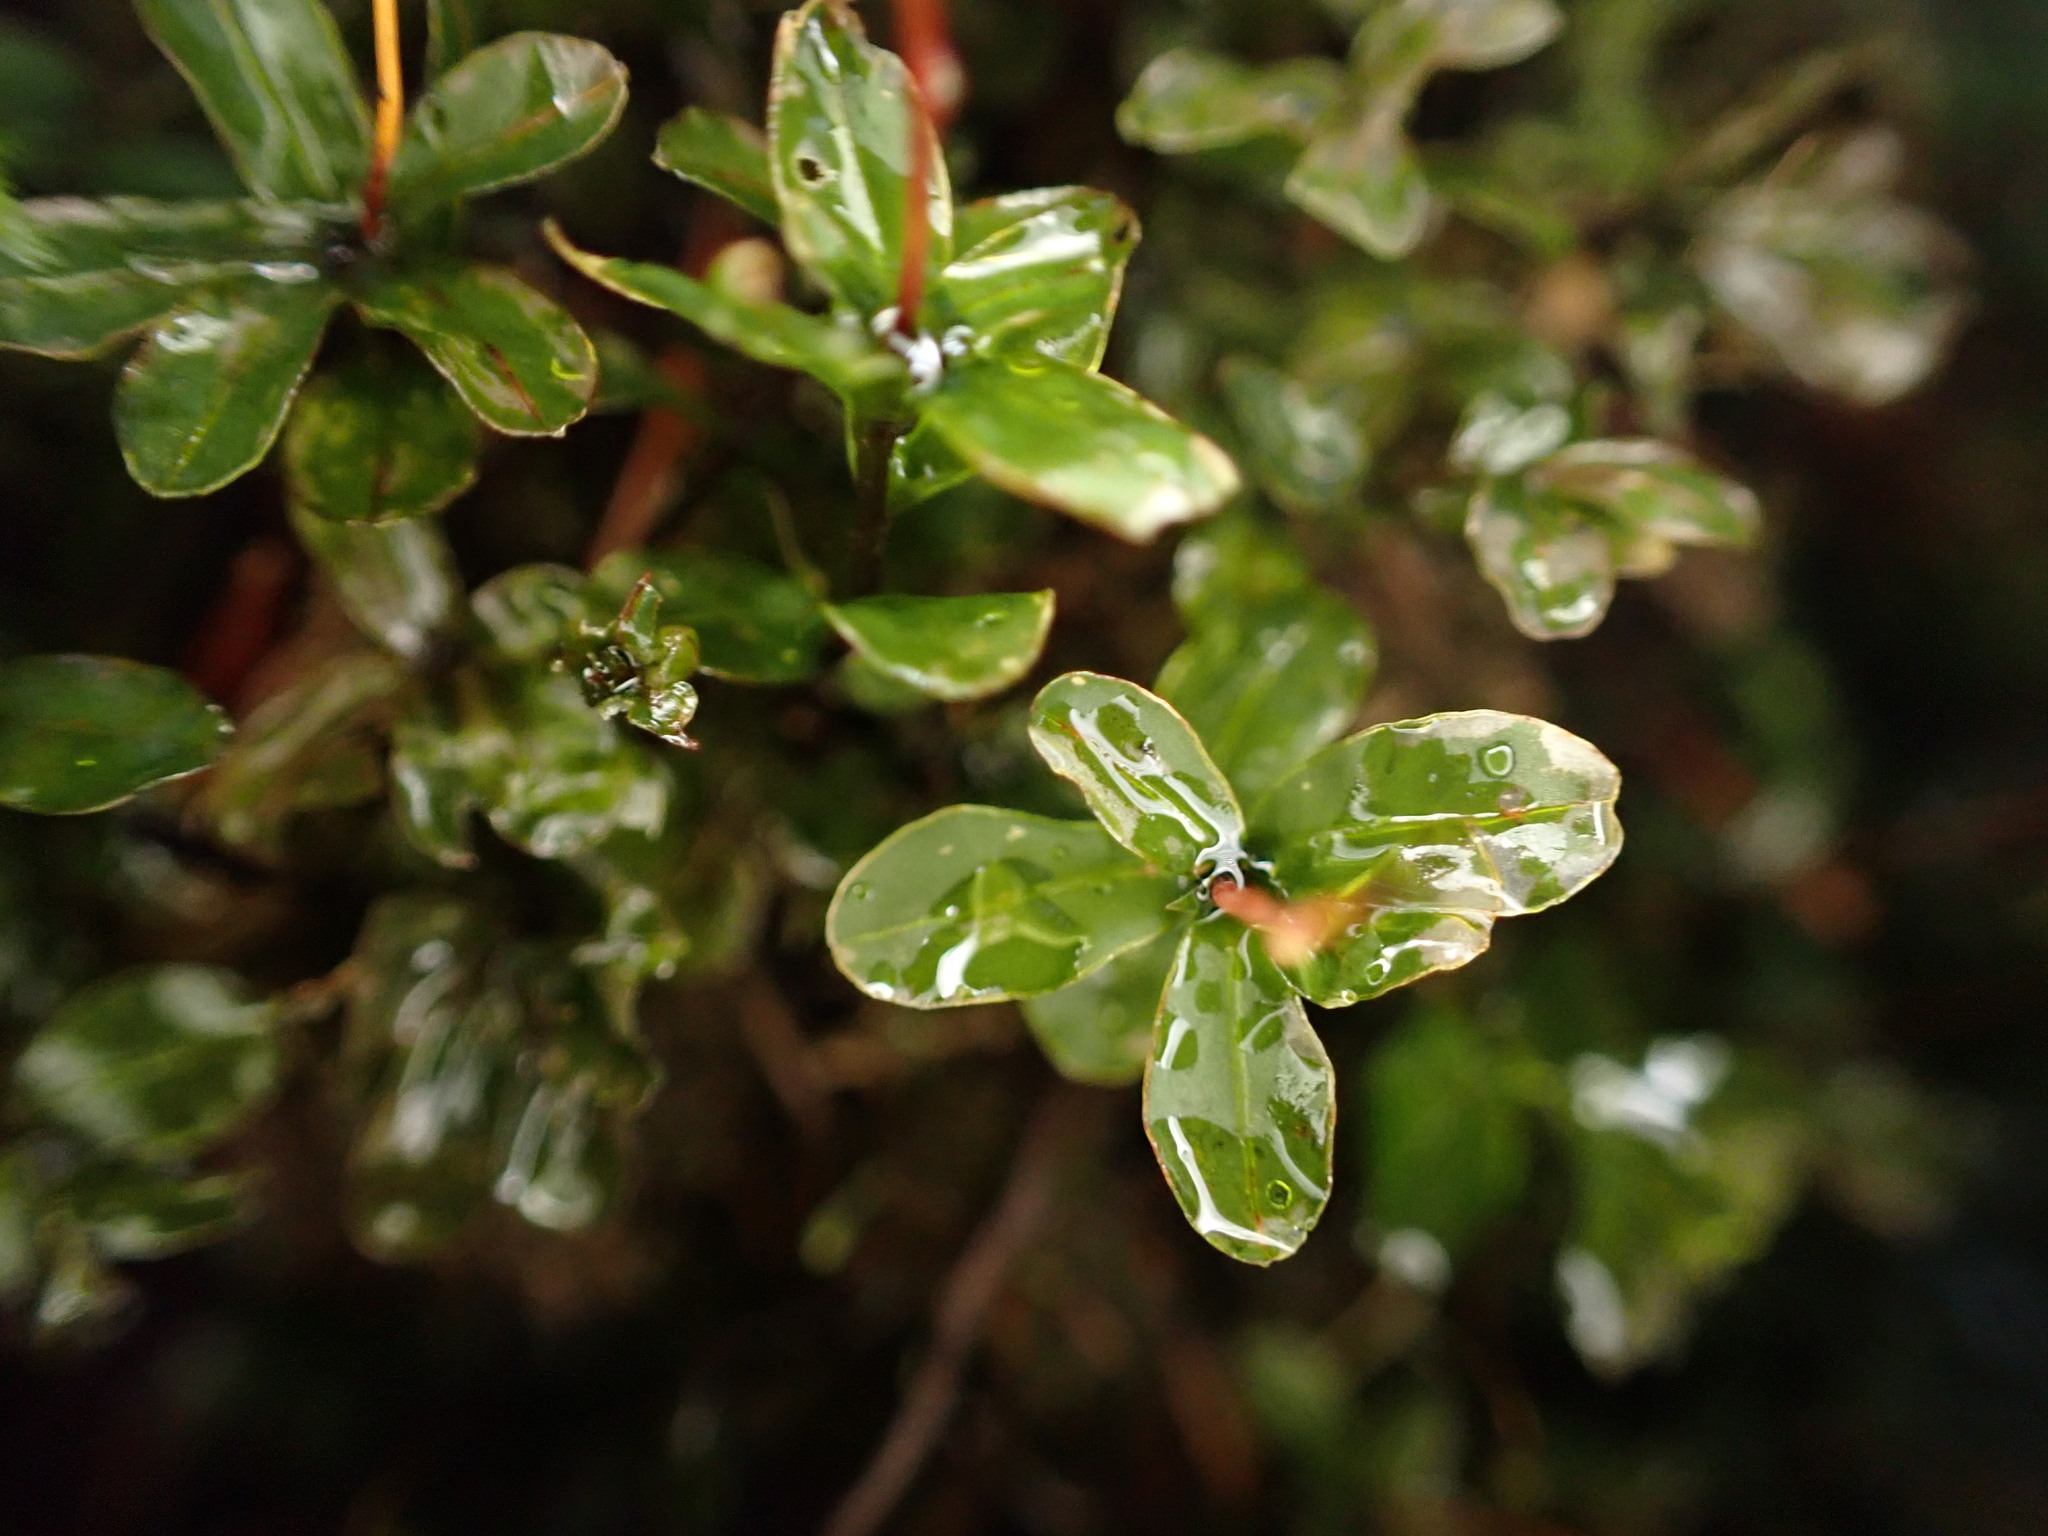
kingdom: Plantae
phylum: Bryophyta
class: Bryopsida
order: Bryales
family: Mniaceae
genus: Rhizomnium
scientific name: Rhizomnium glabrescens
